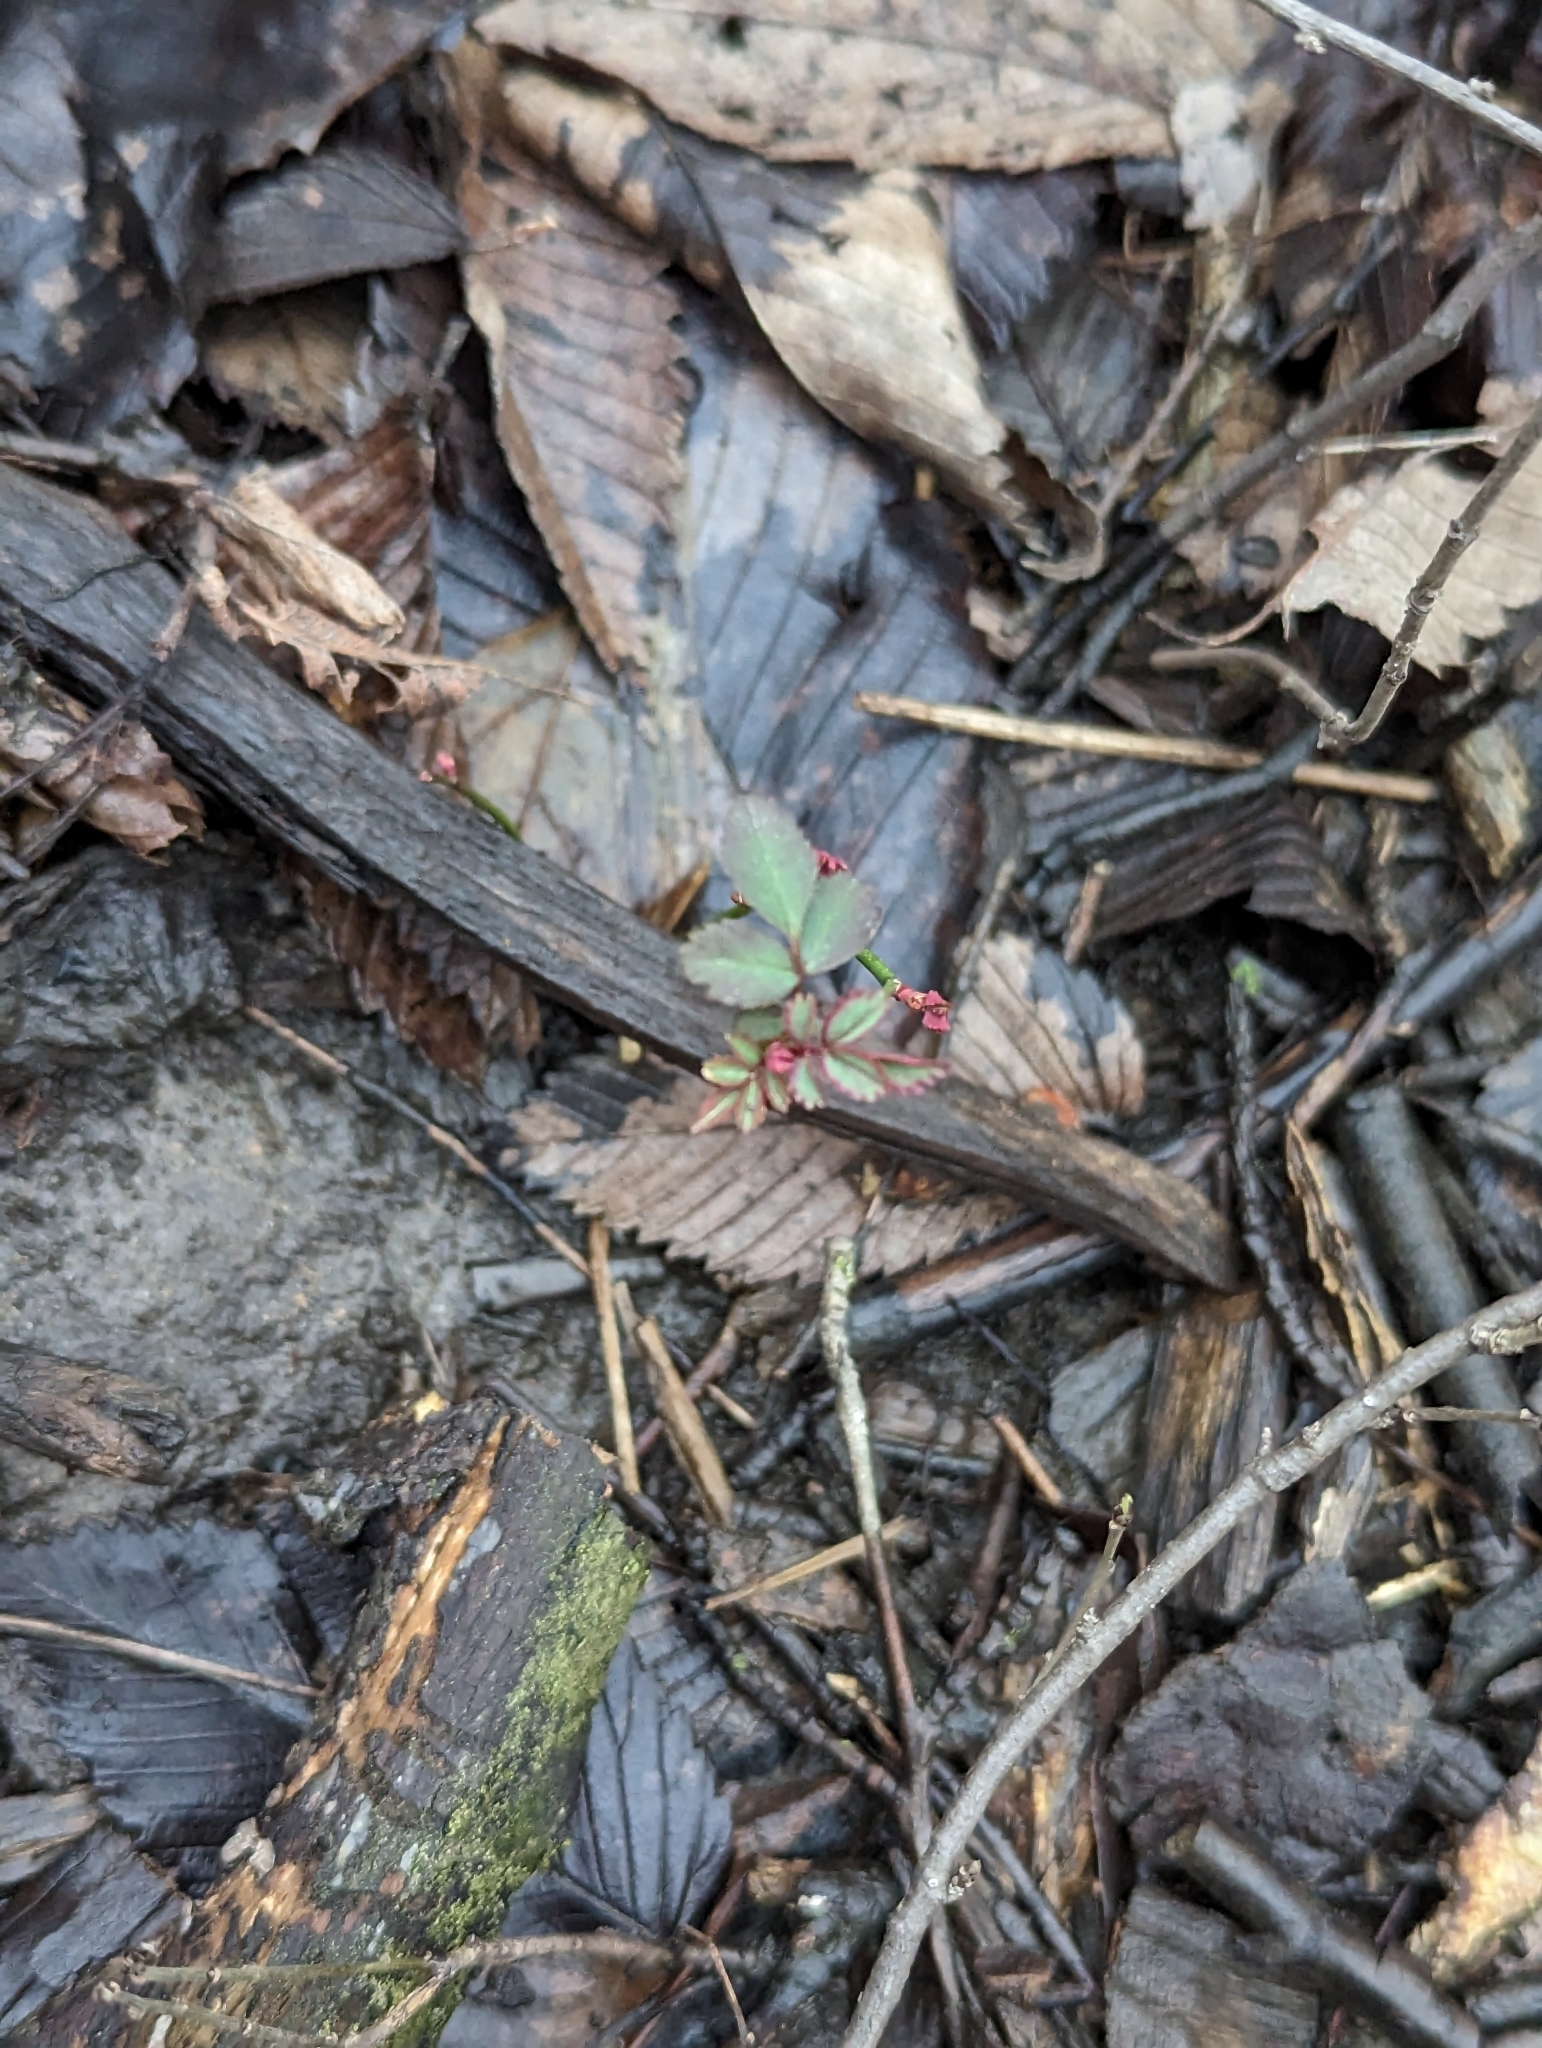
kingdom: Plantae
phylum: Tracheophyta
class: Magnoliopsida
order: Rosales
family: Rosaceae
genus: Rosa
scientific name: Rosa multiflora
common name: Multiflora rose
